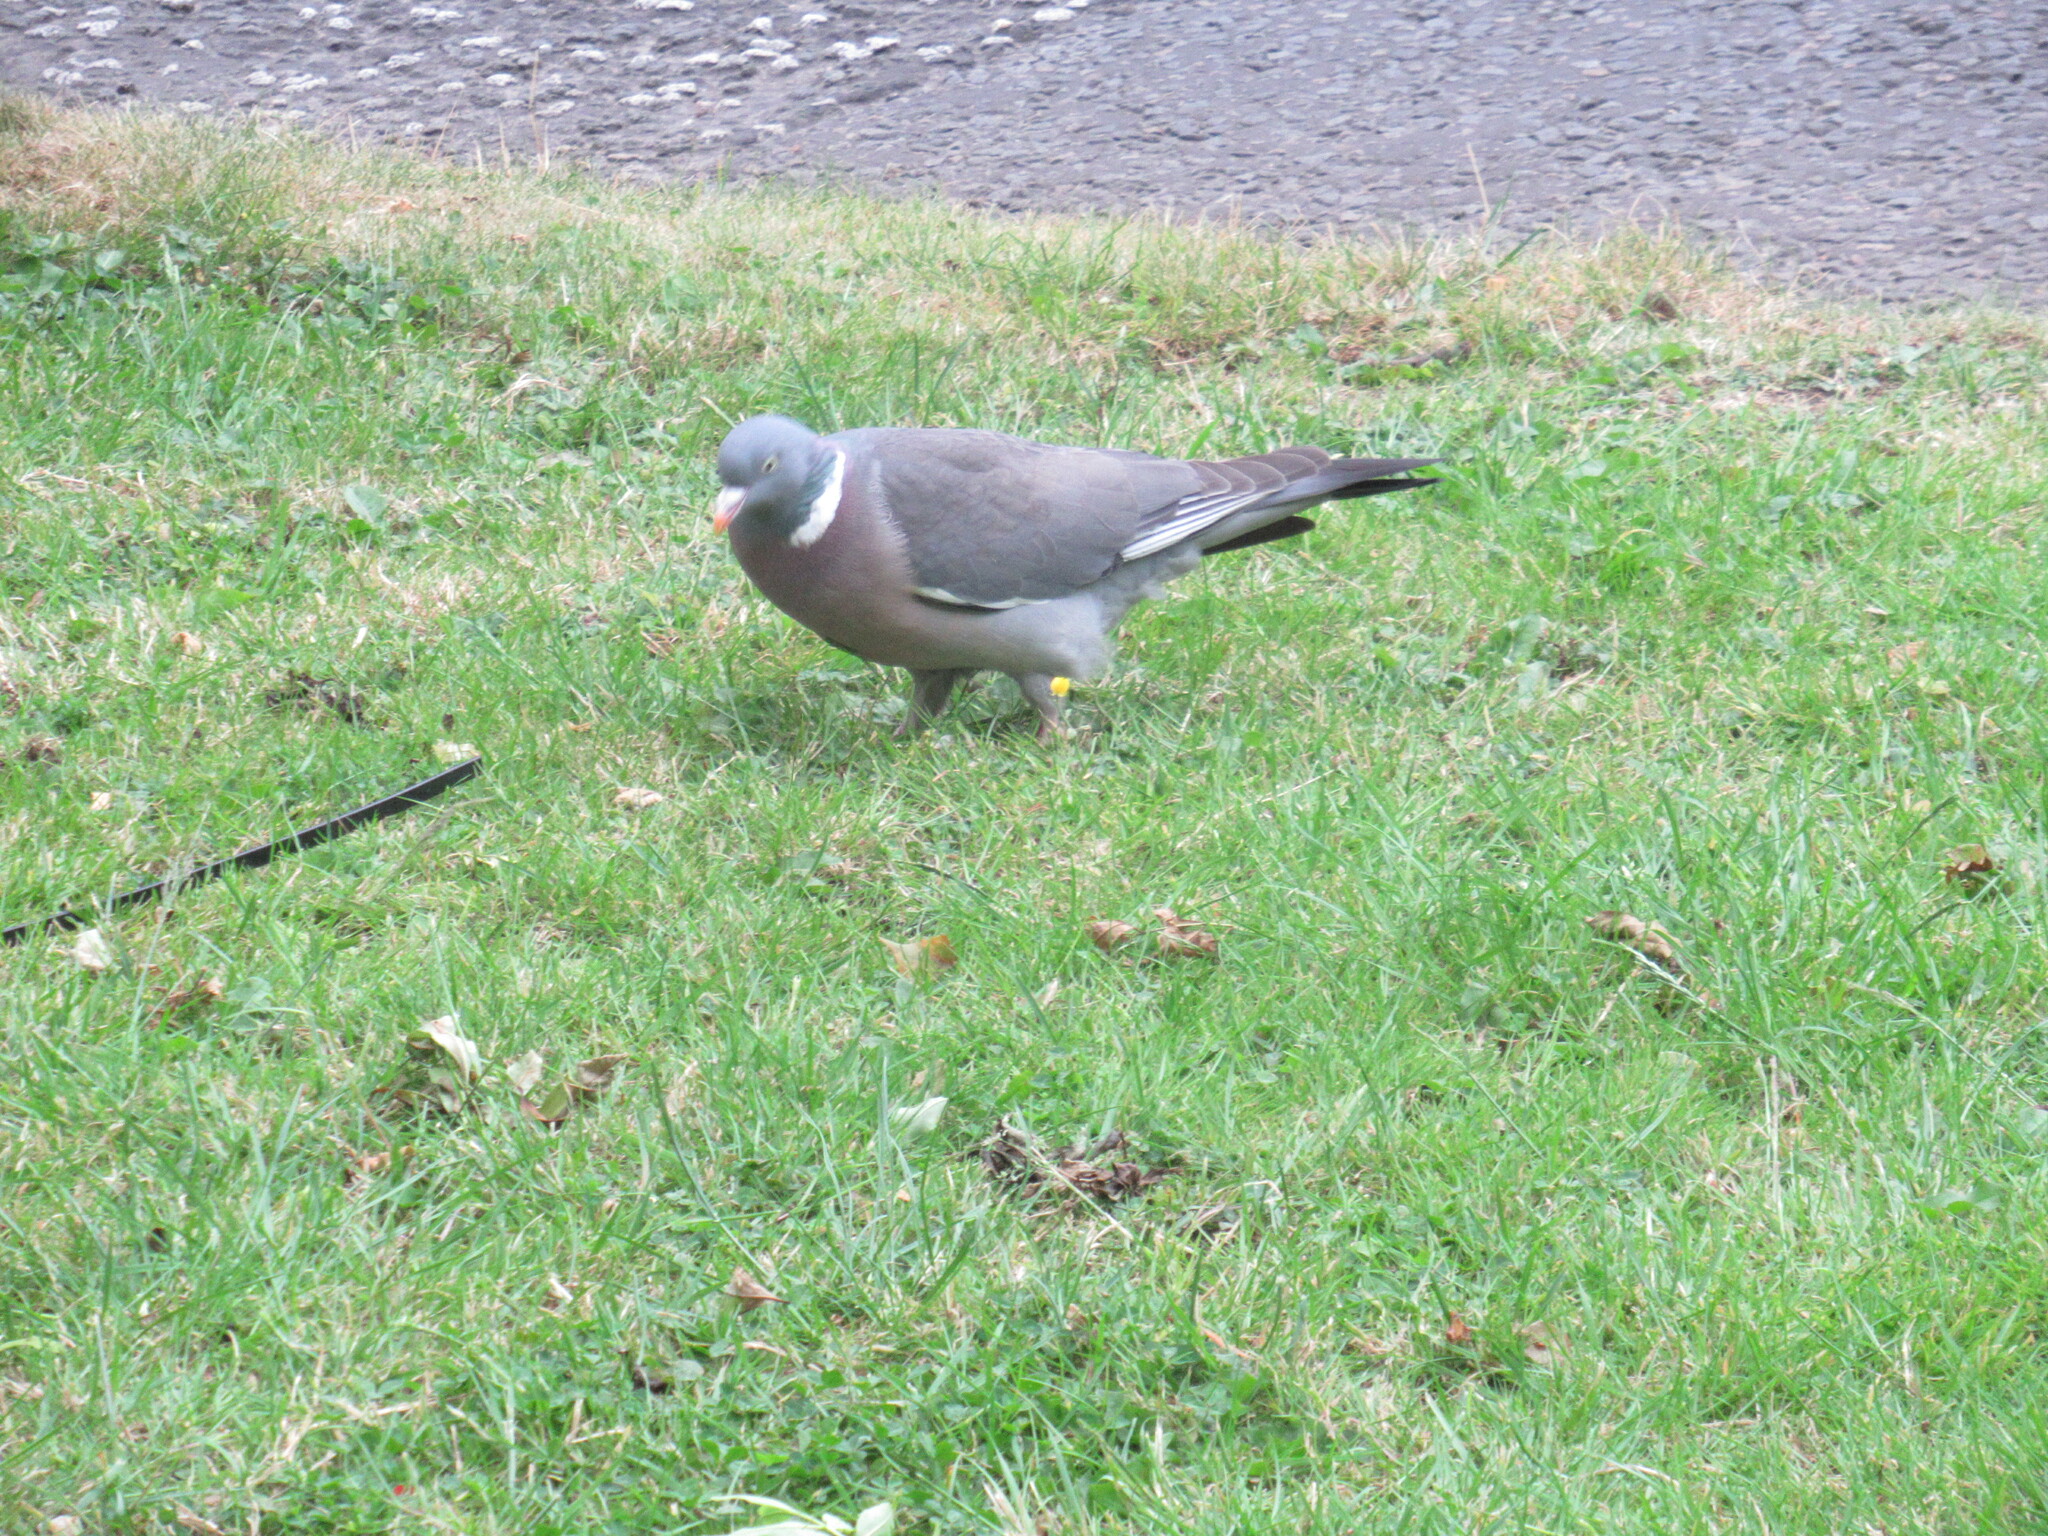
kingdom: Animalia
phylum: Chordata
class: Aves
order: Columbiformes
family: Columbidae
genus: Columba
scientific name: Columba palumbus
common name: Common wood pigeon
